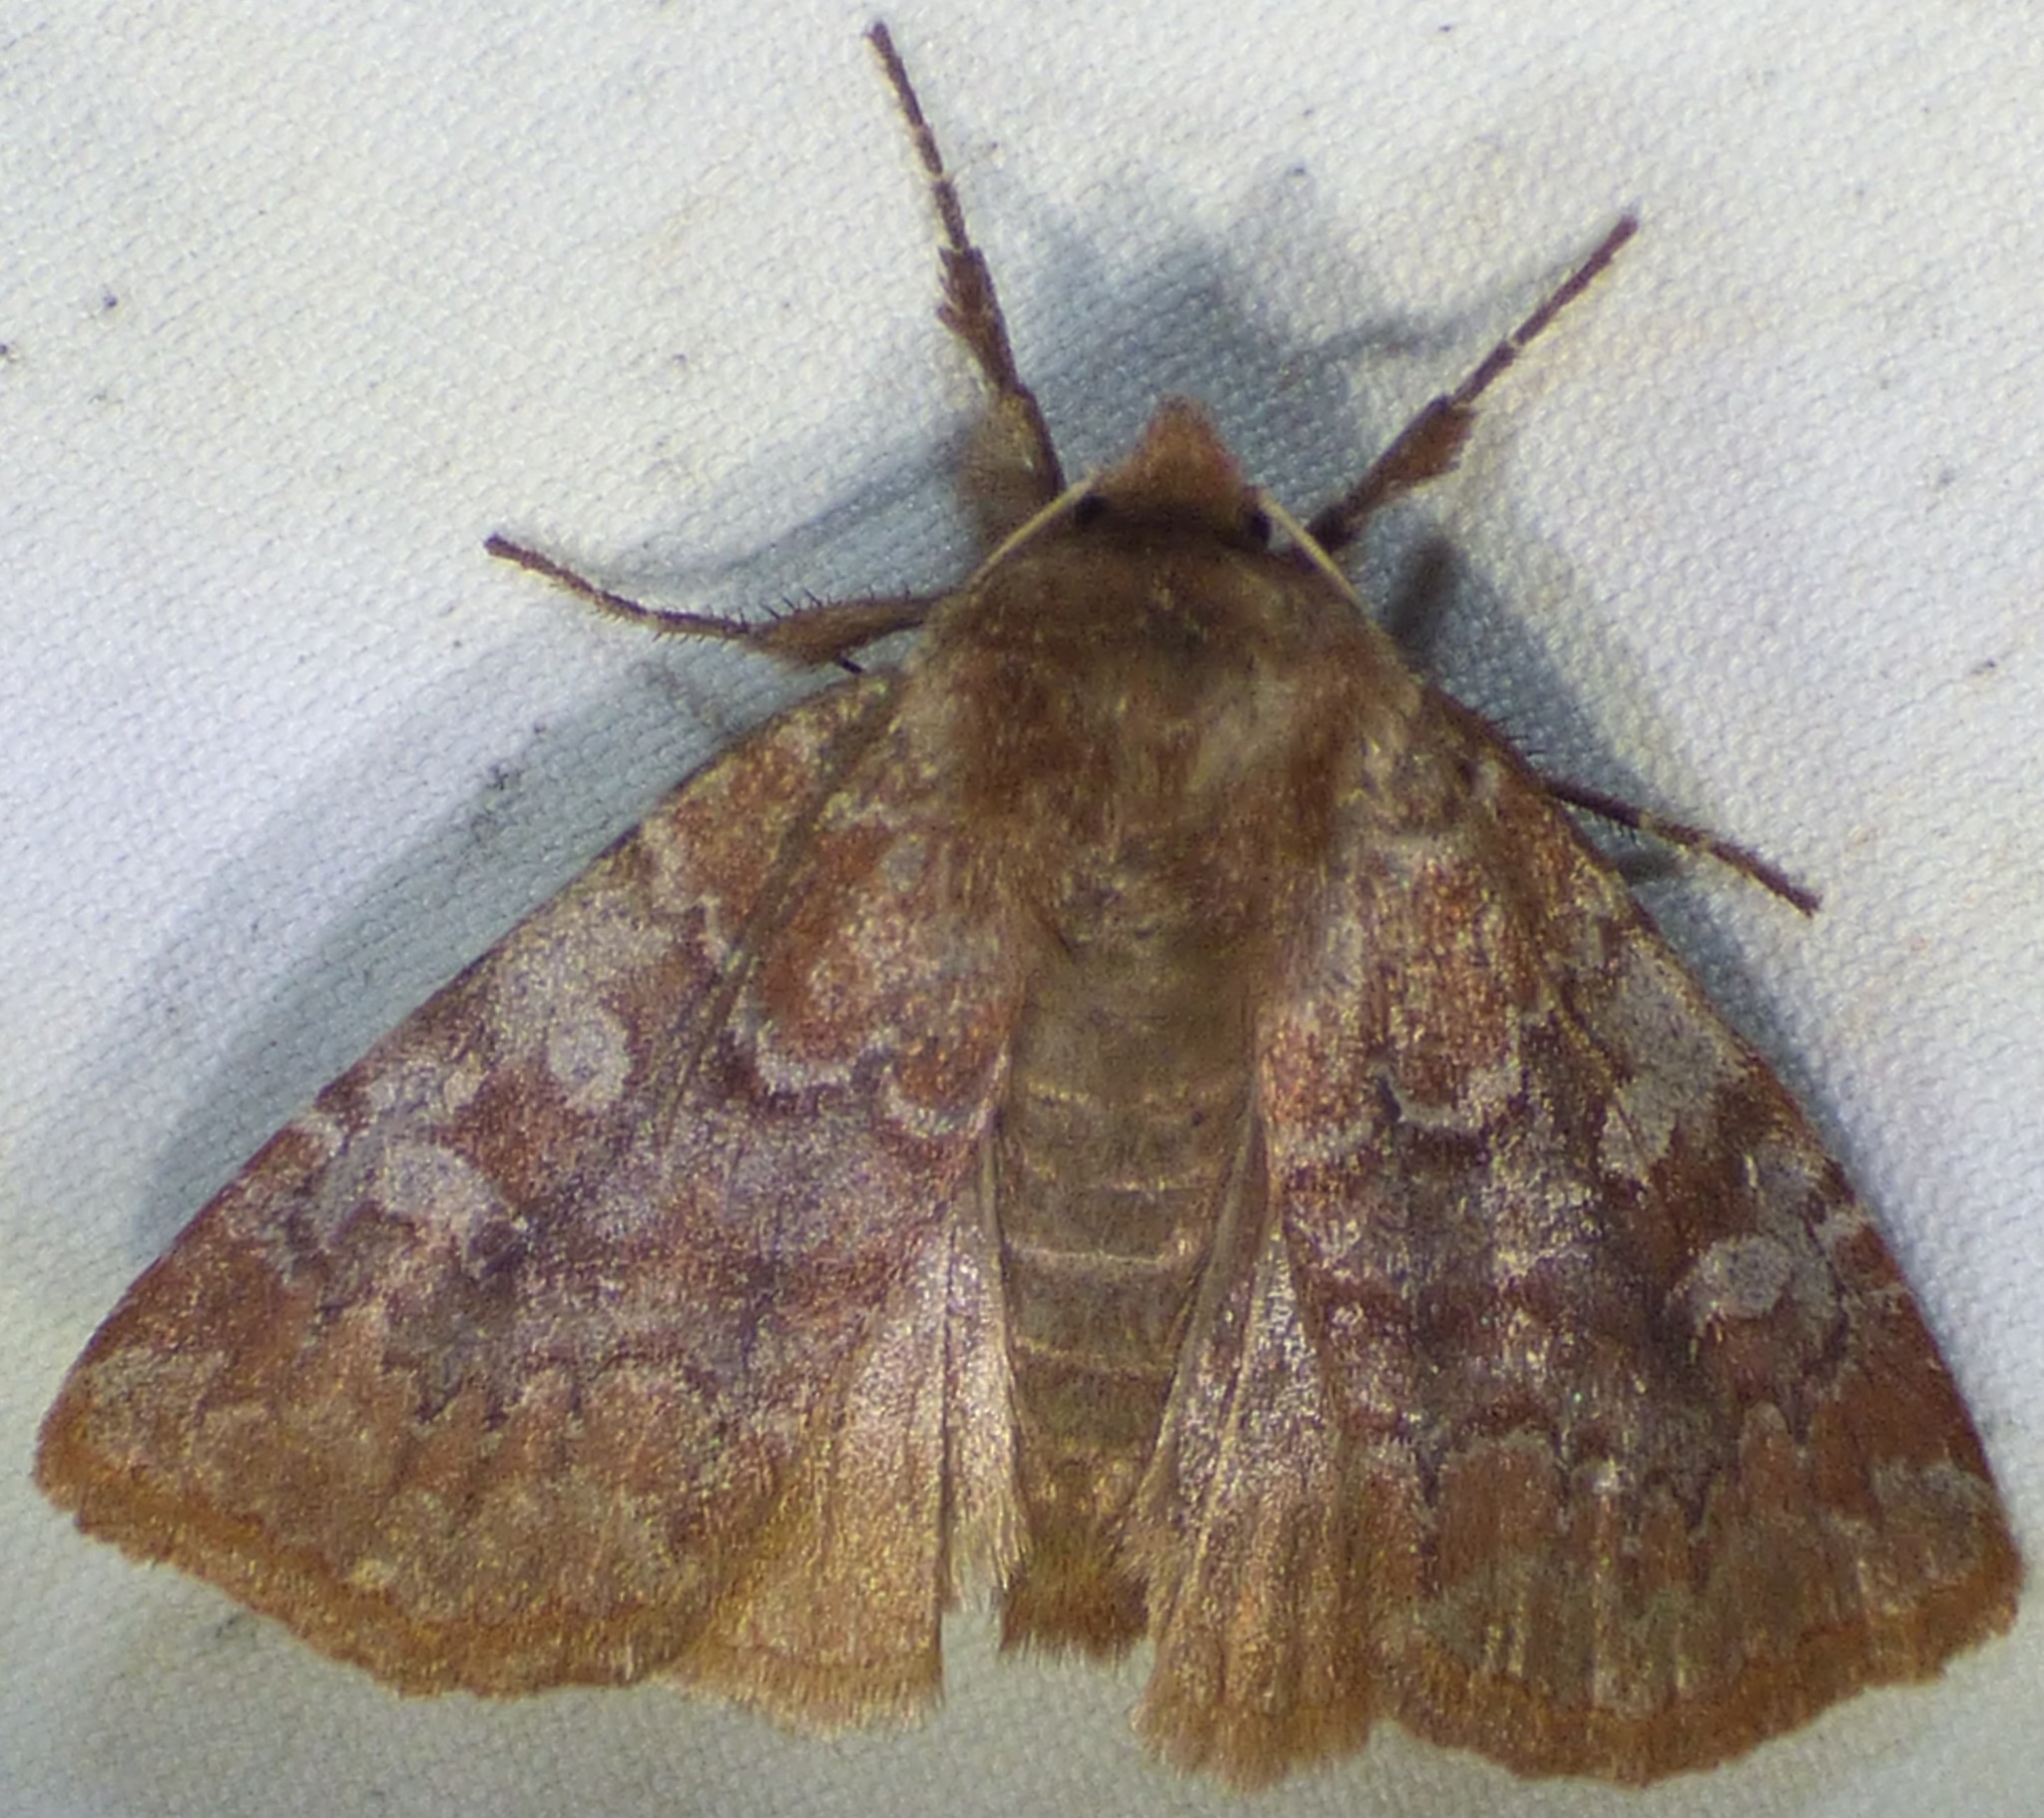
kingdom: Animalia
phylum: Arthropoda
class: Insecta
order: Lepidoptera
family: Noctuidae
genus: Cerastis
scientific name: Cerastis tenebrifera
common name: Reddish speckled dart
